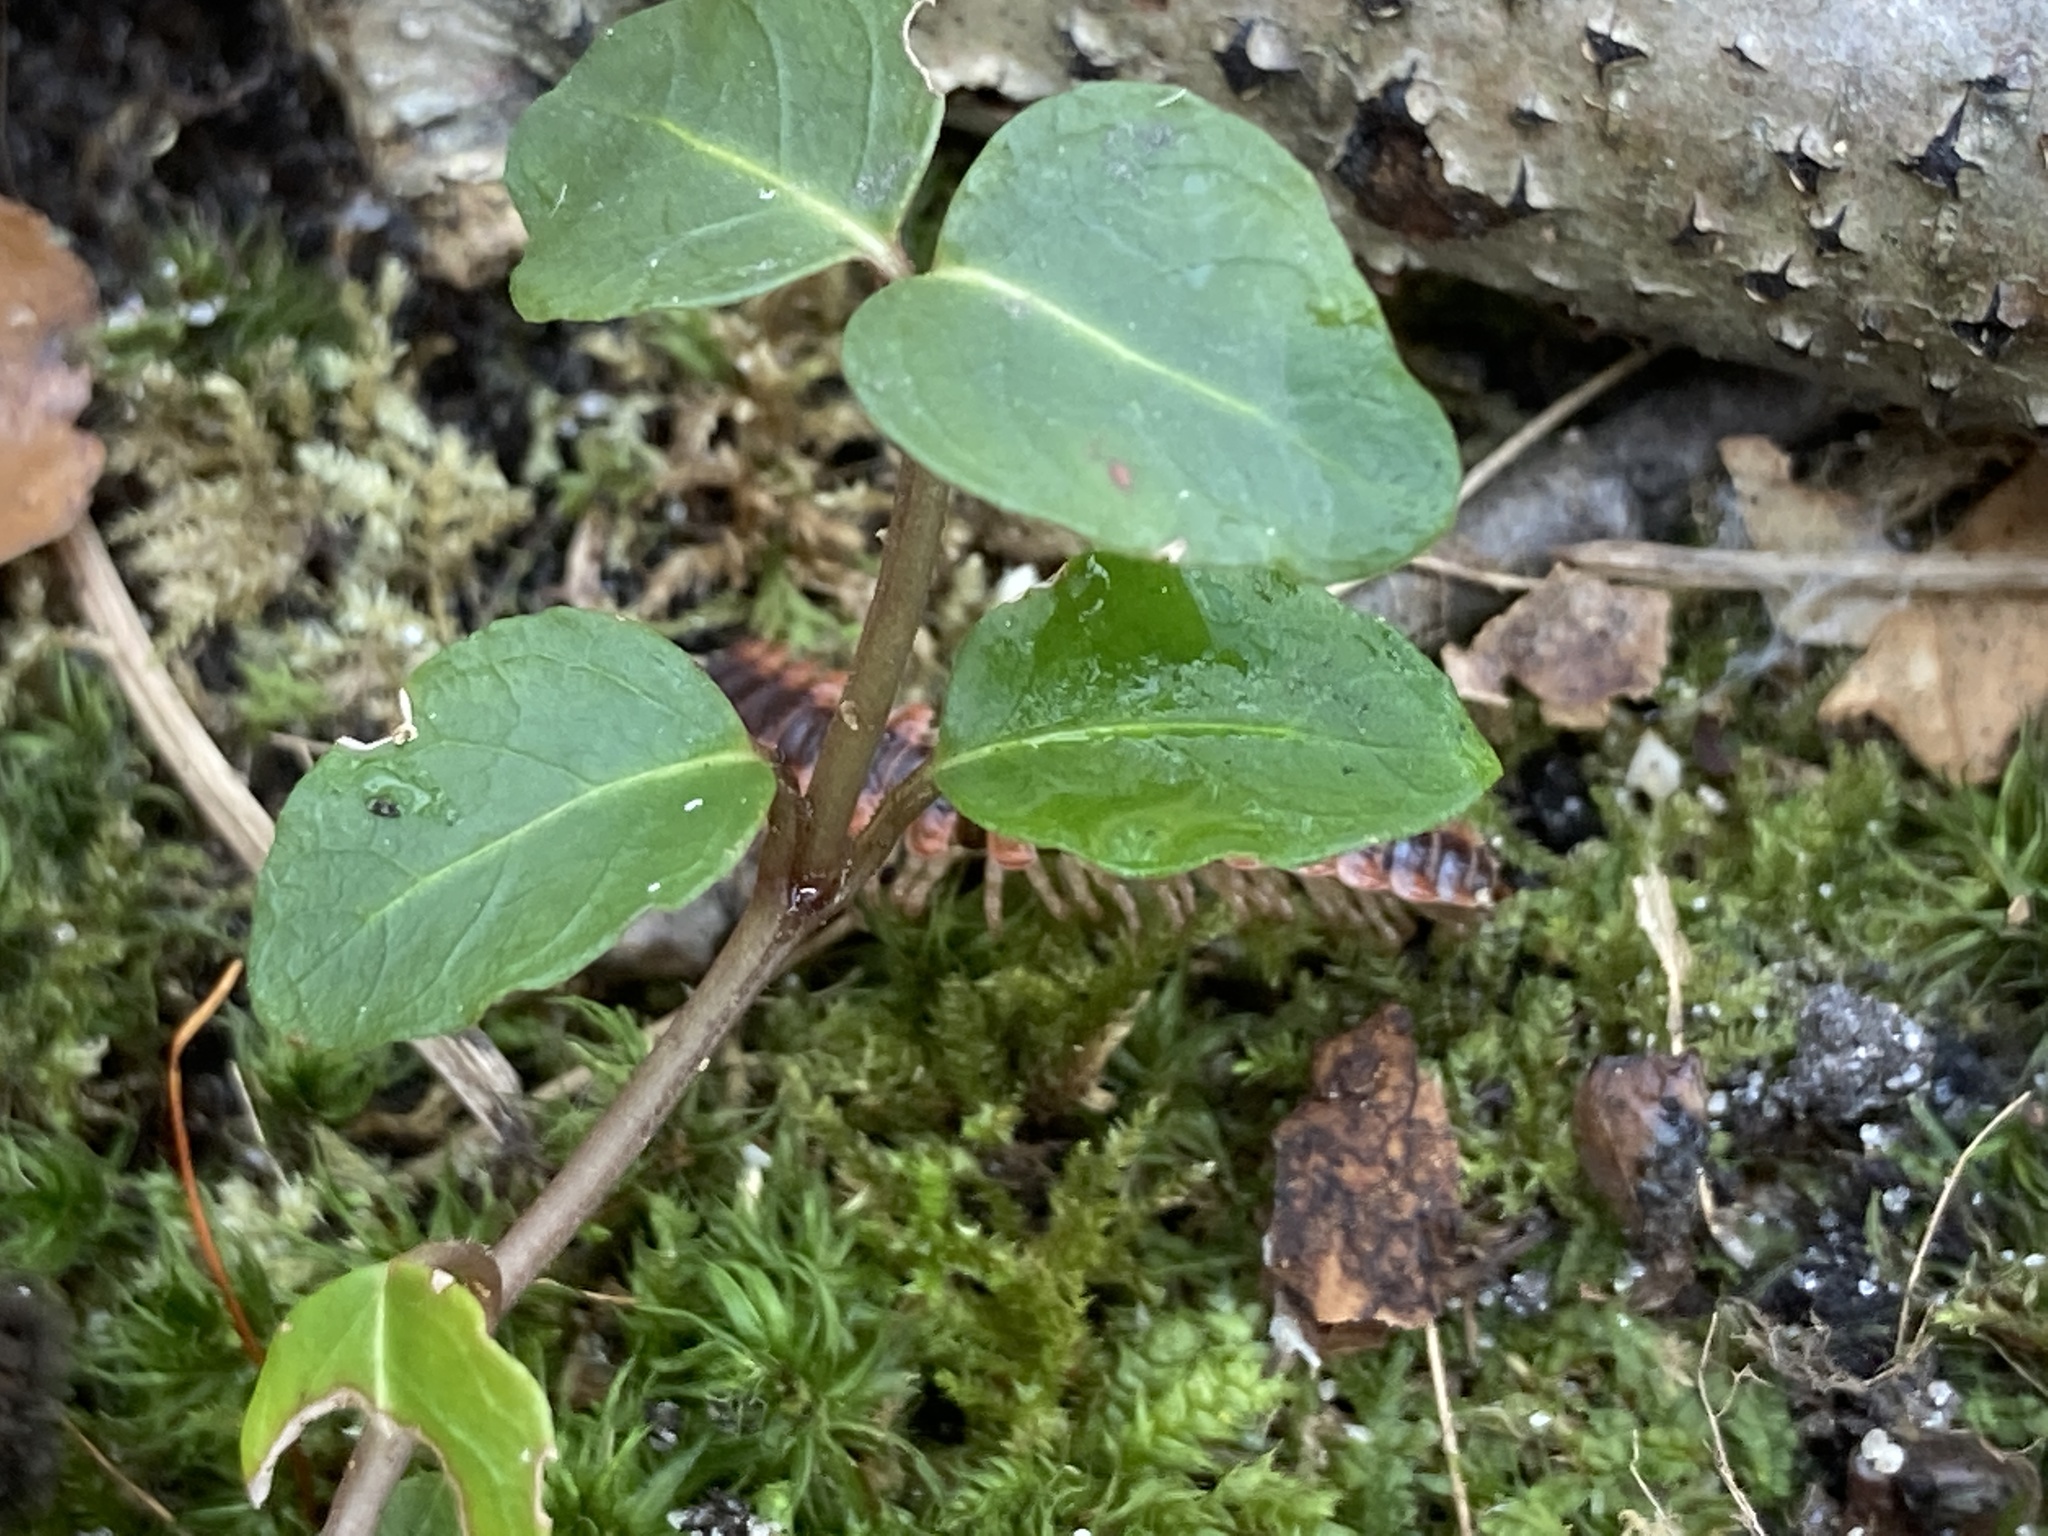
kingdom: Plantae
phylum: Tracheophyta
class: Magnoliopsida
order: Gentianales
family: Rubiaceae
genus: Mitchella
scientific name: Mitchella repens
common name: Partridge-berry
